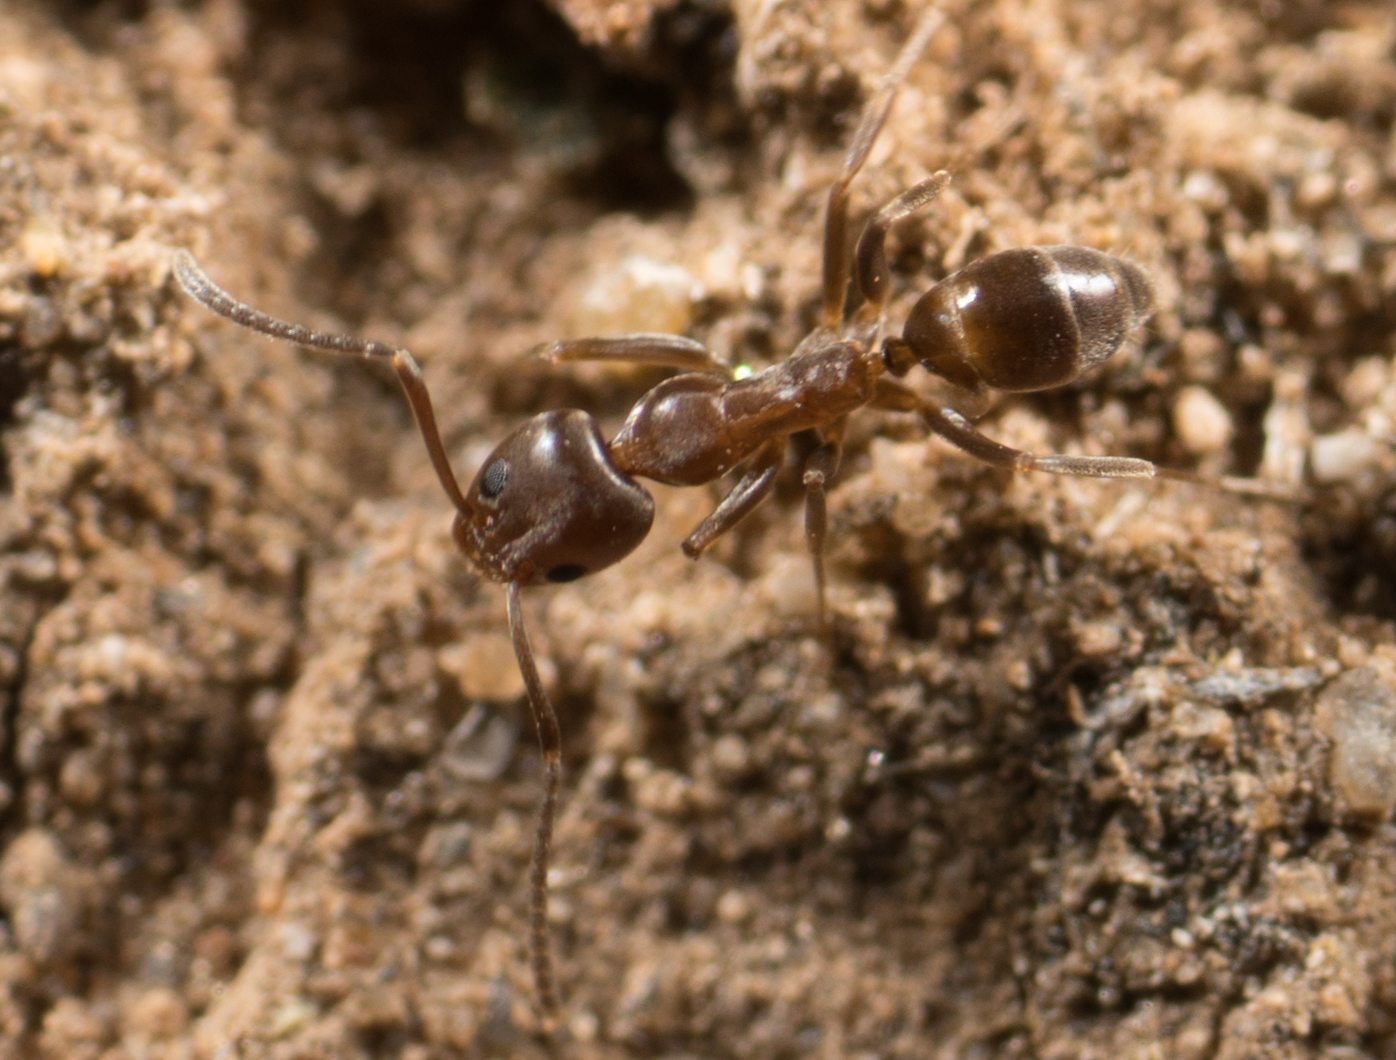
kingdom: Animalia
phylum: Arthropoda
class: Insecta
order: Hymenoptera
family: Formicidae
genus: Linepithema
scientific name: Linepithema humile
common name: Argentine ant
